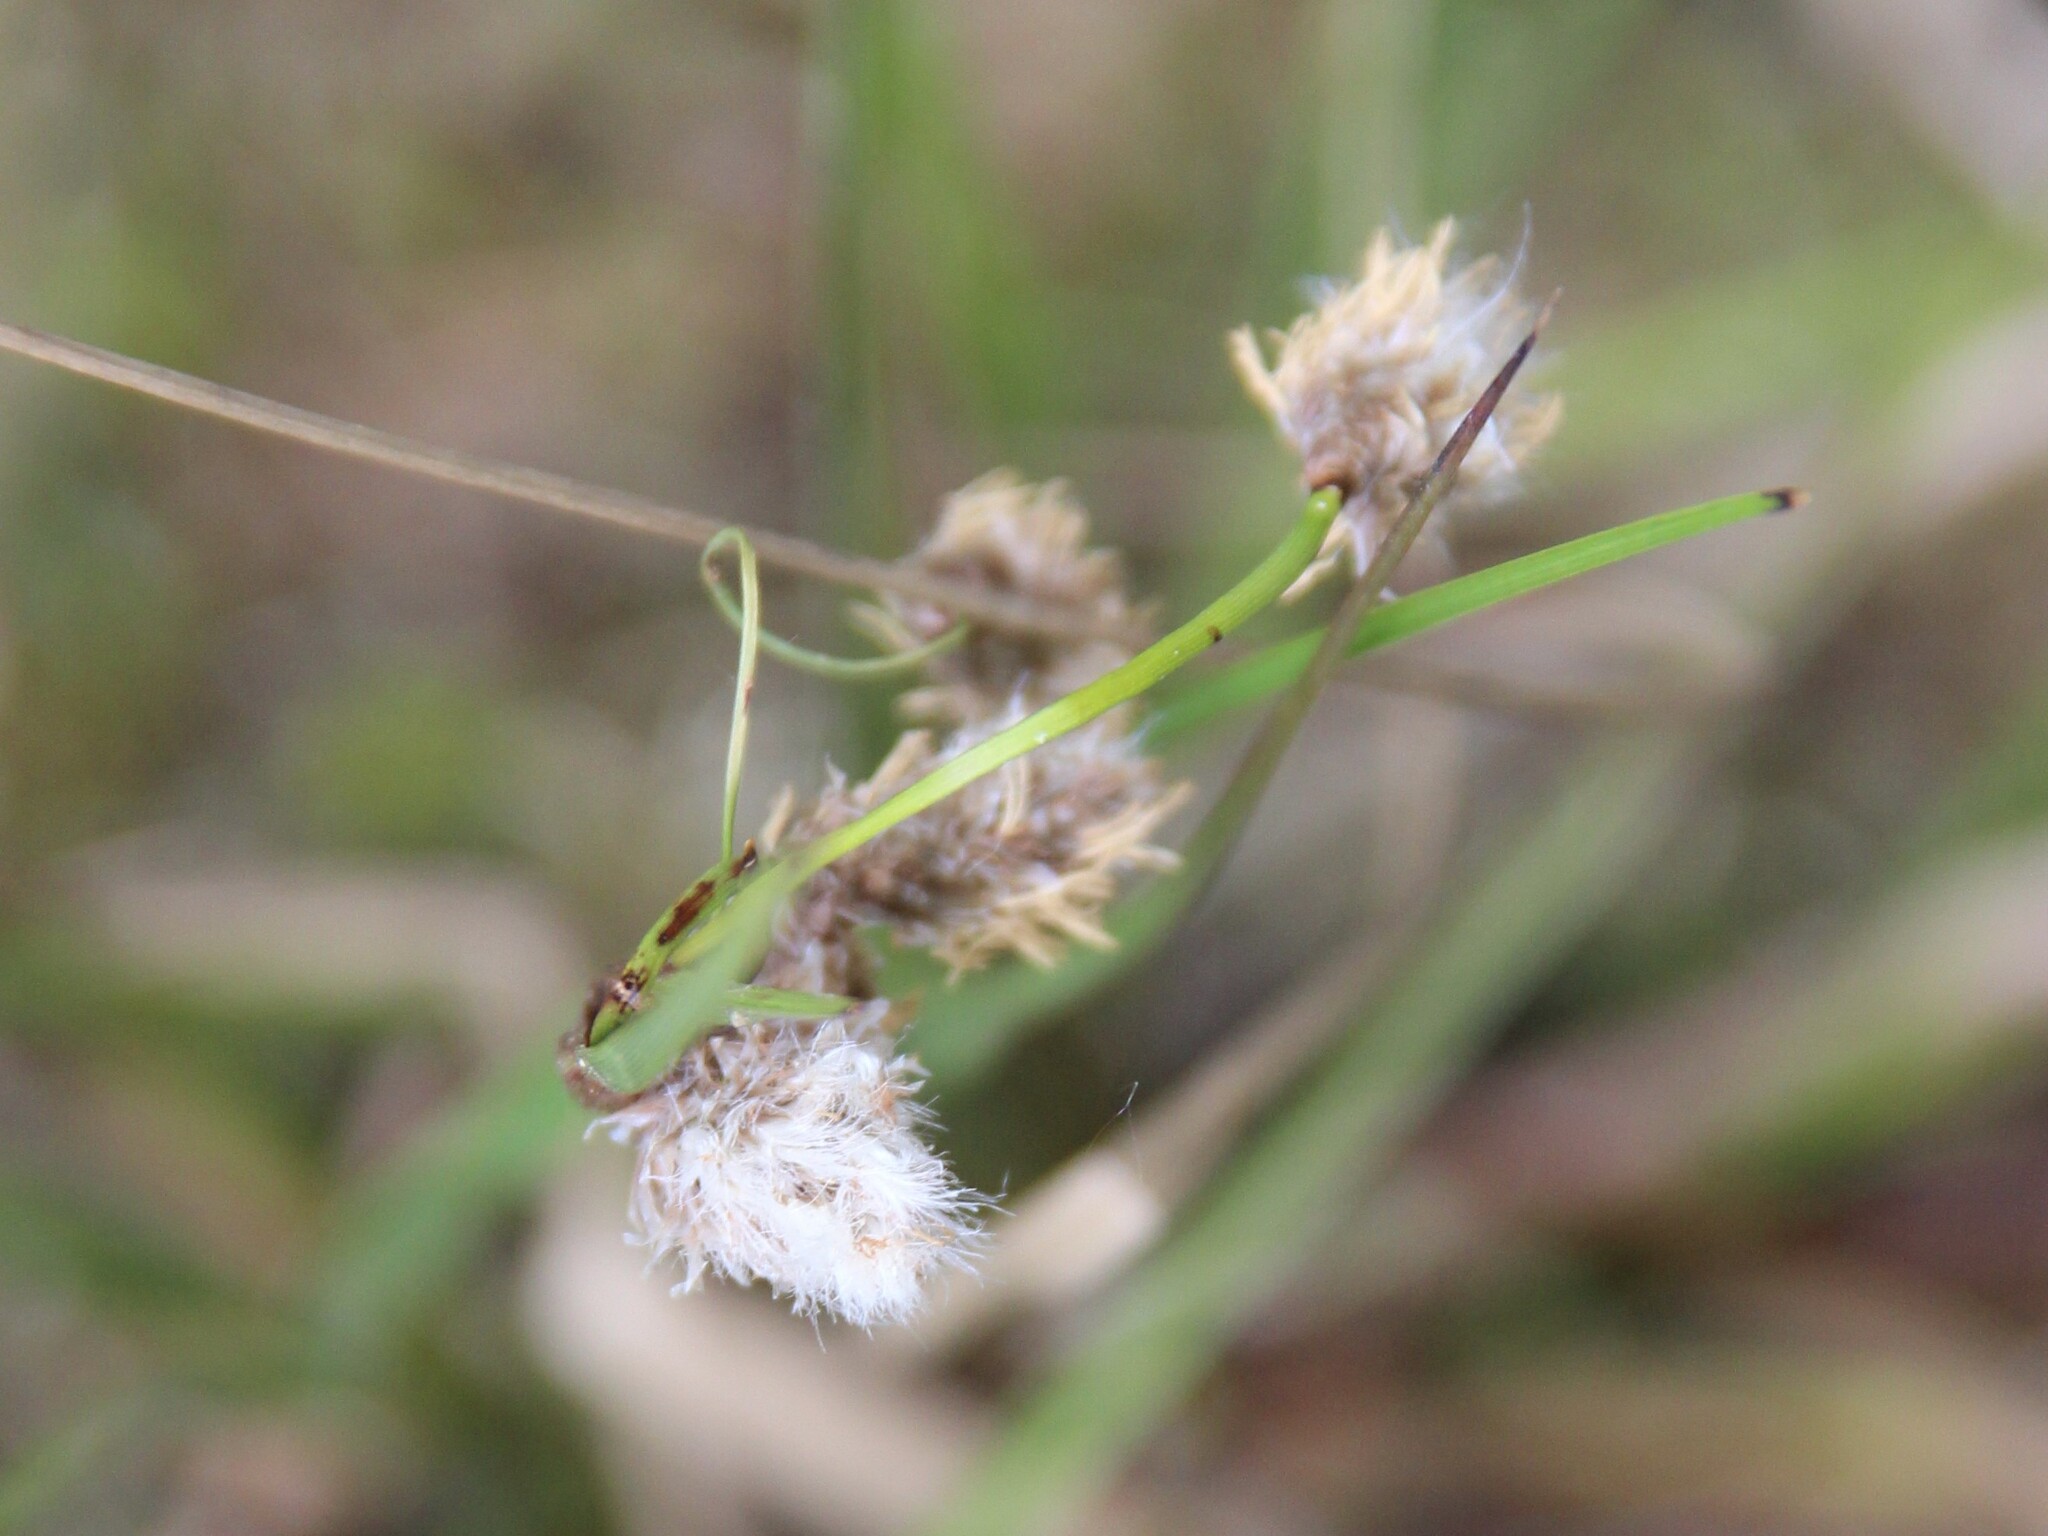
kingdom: Plantae
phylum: Tracheophyta
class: Liliopsida
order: Poales
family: Cyperaceae
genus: Eriophorum
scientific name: Eriophorum angustifolium
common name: Common cottongrass
